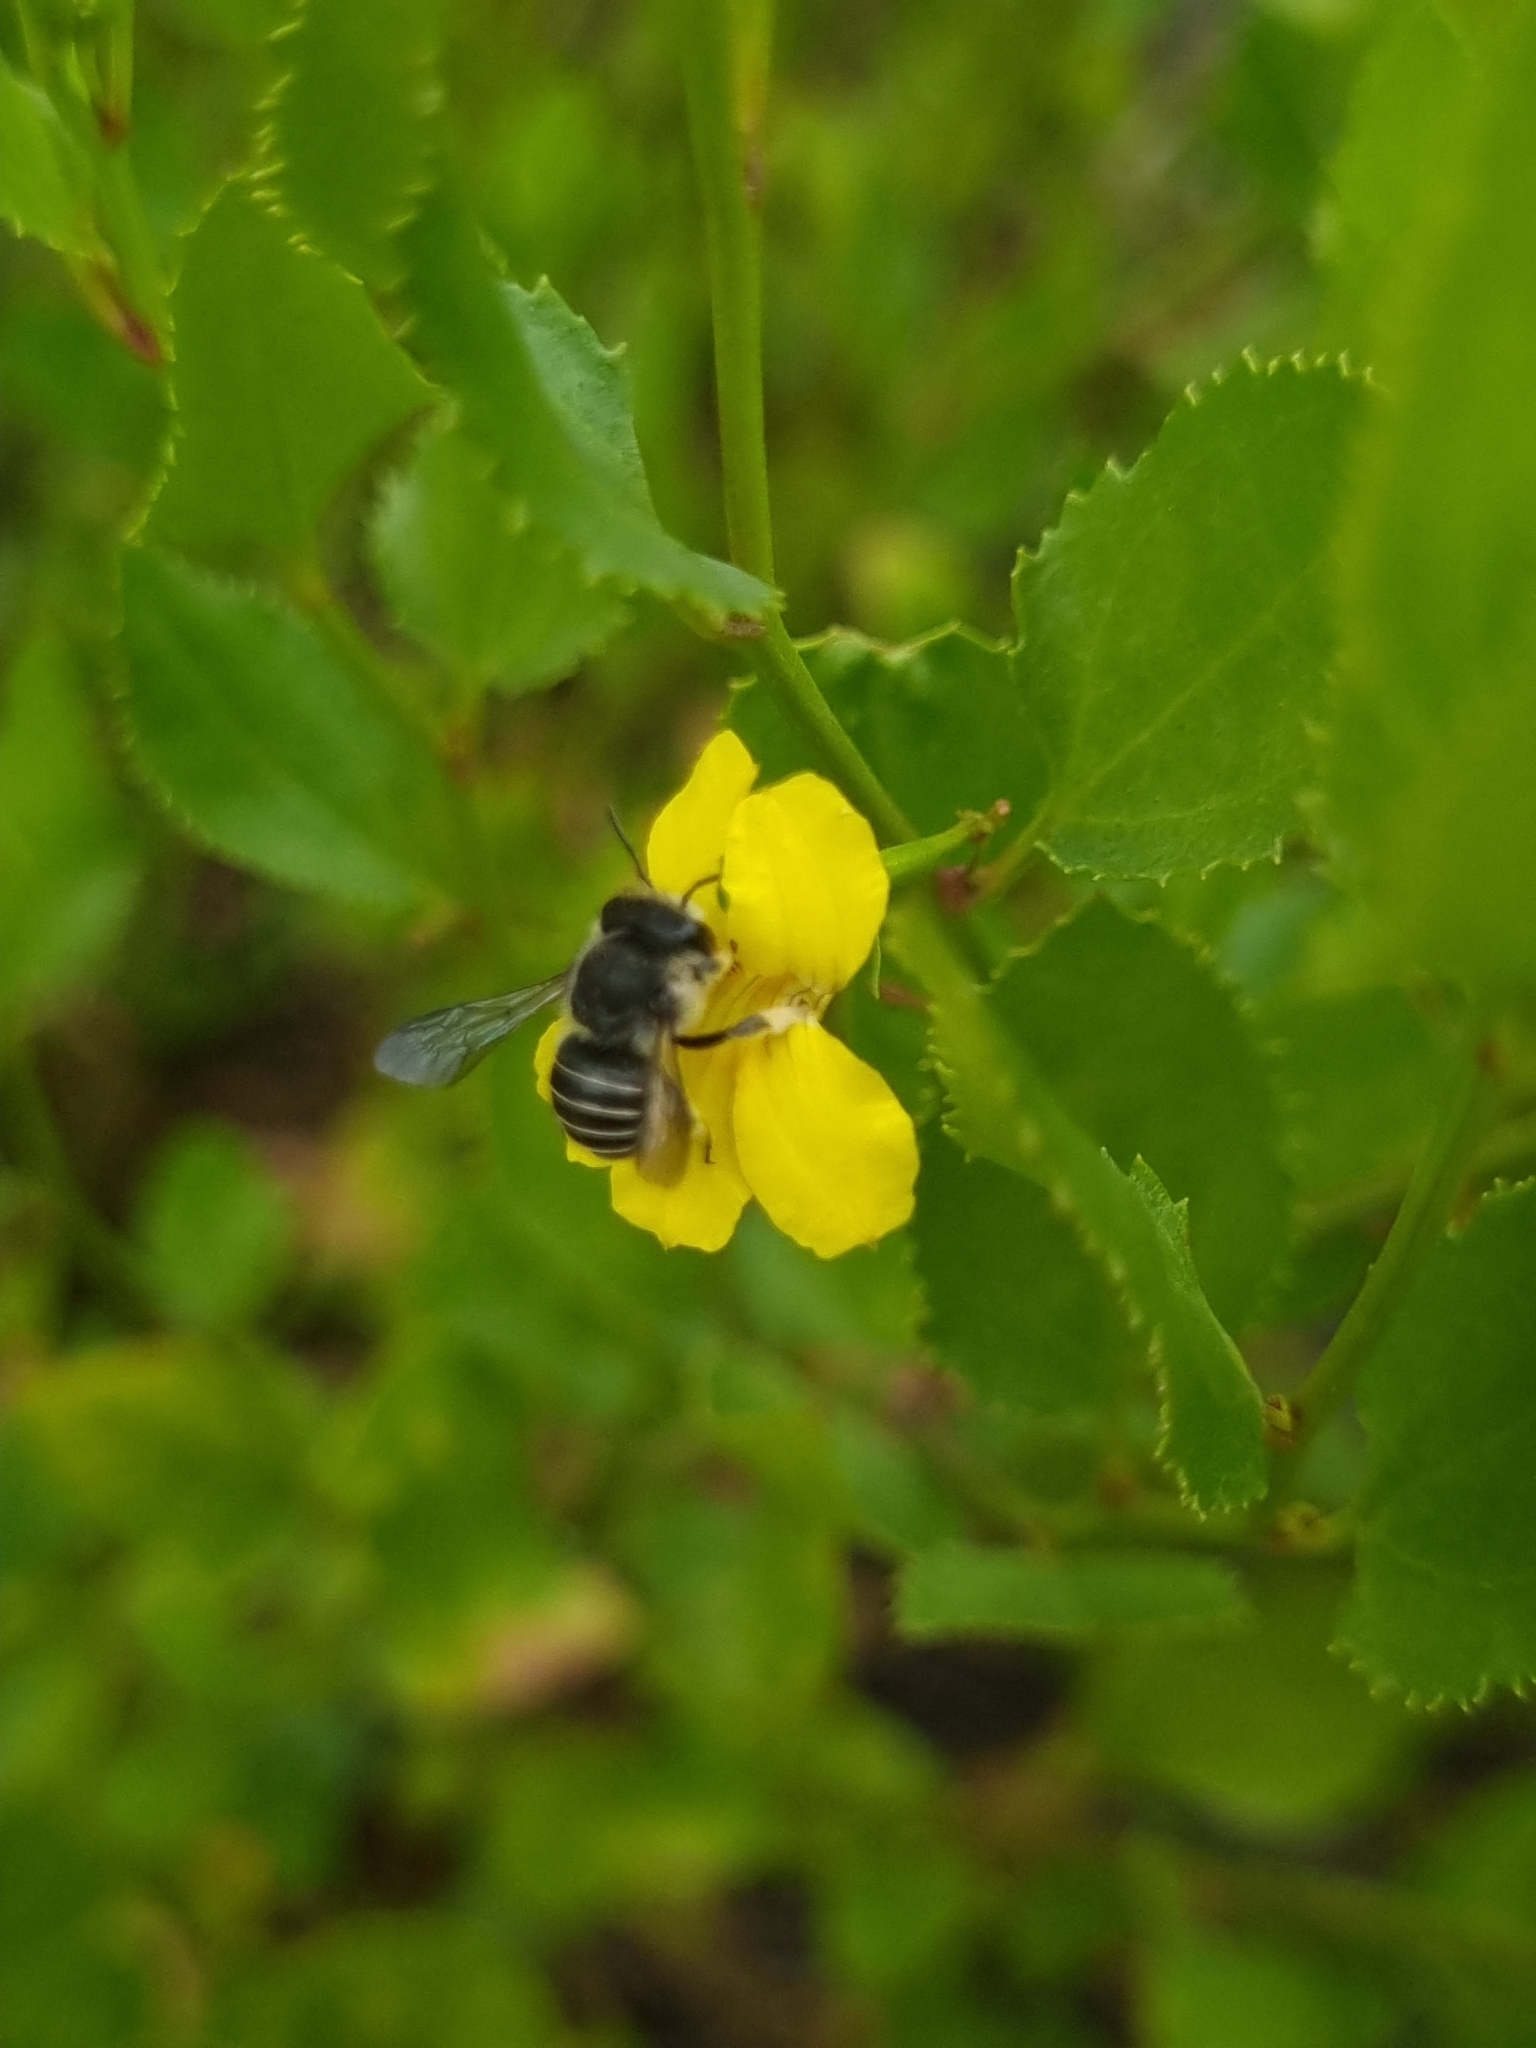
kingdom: Animalia
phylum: Arthropoda
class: Insecta
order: Hymenoptera
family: Megachilidae
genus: Pseudoanthidium
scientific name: Pseudoanthidium repetitum
